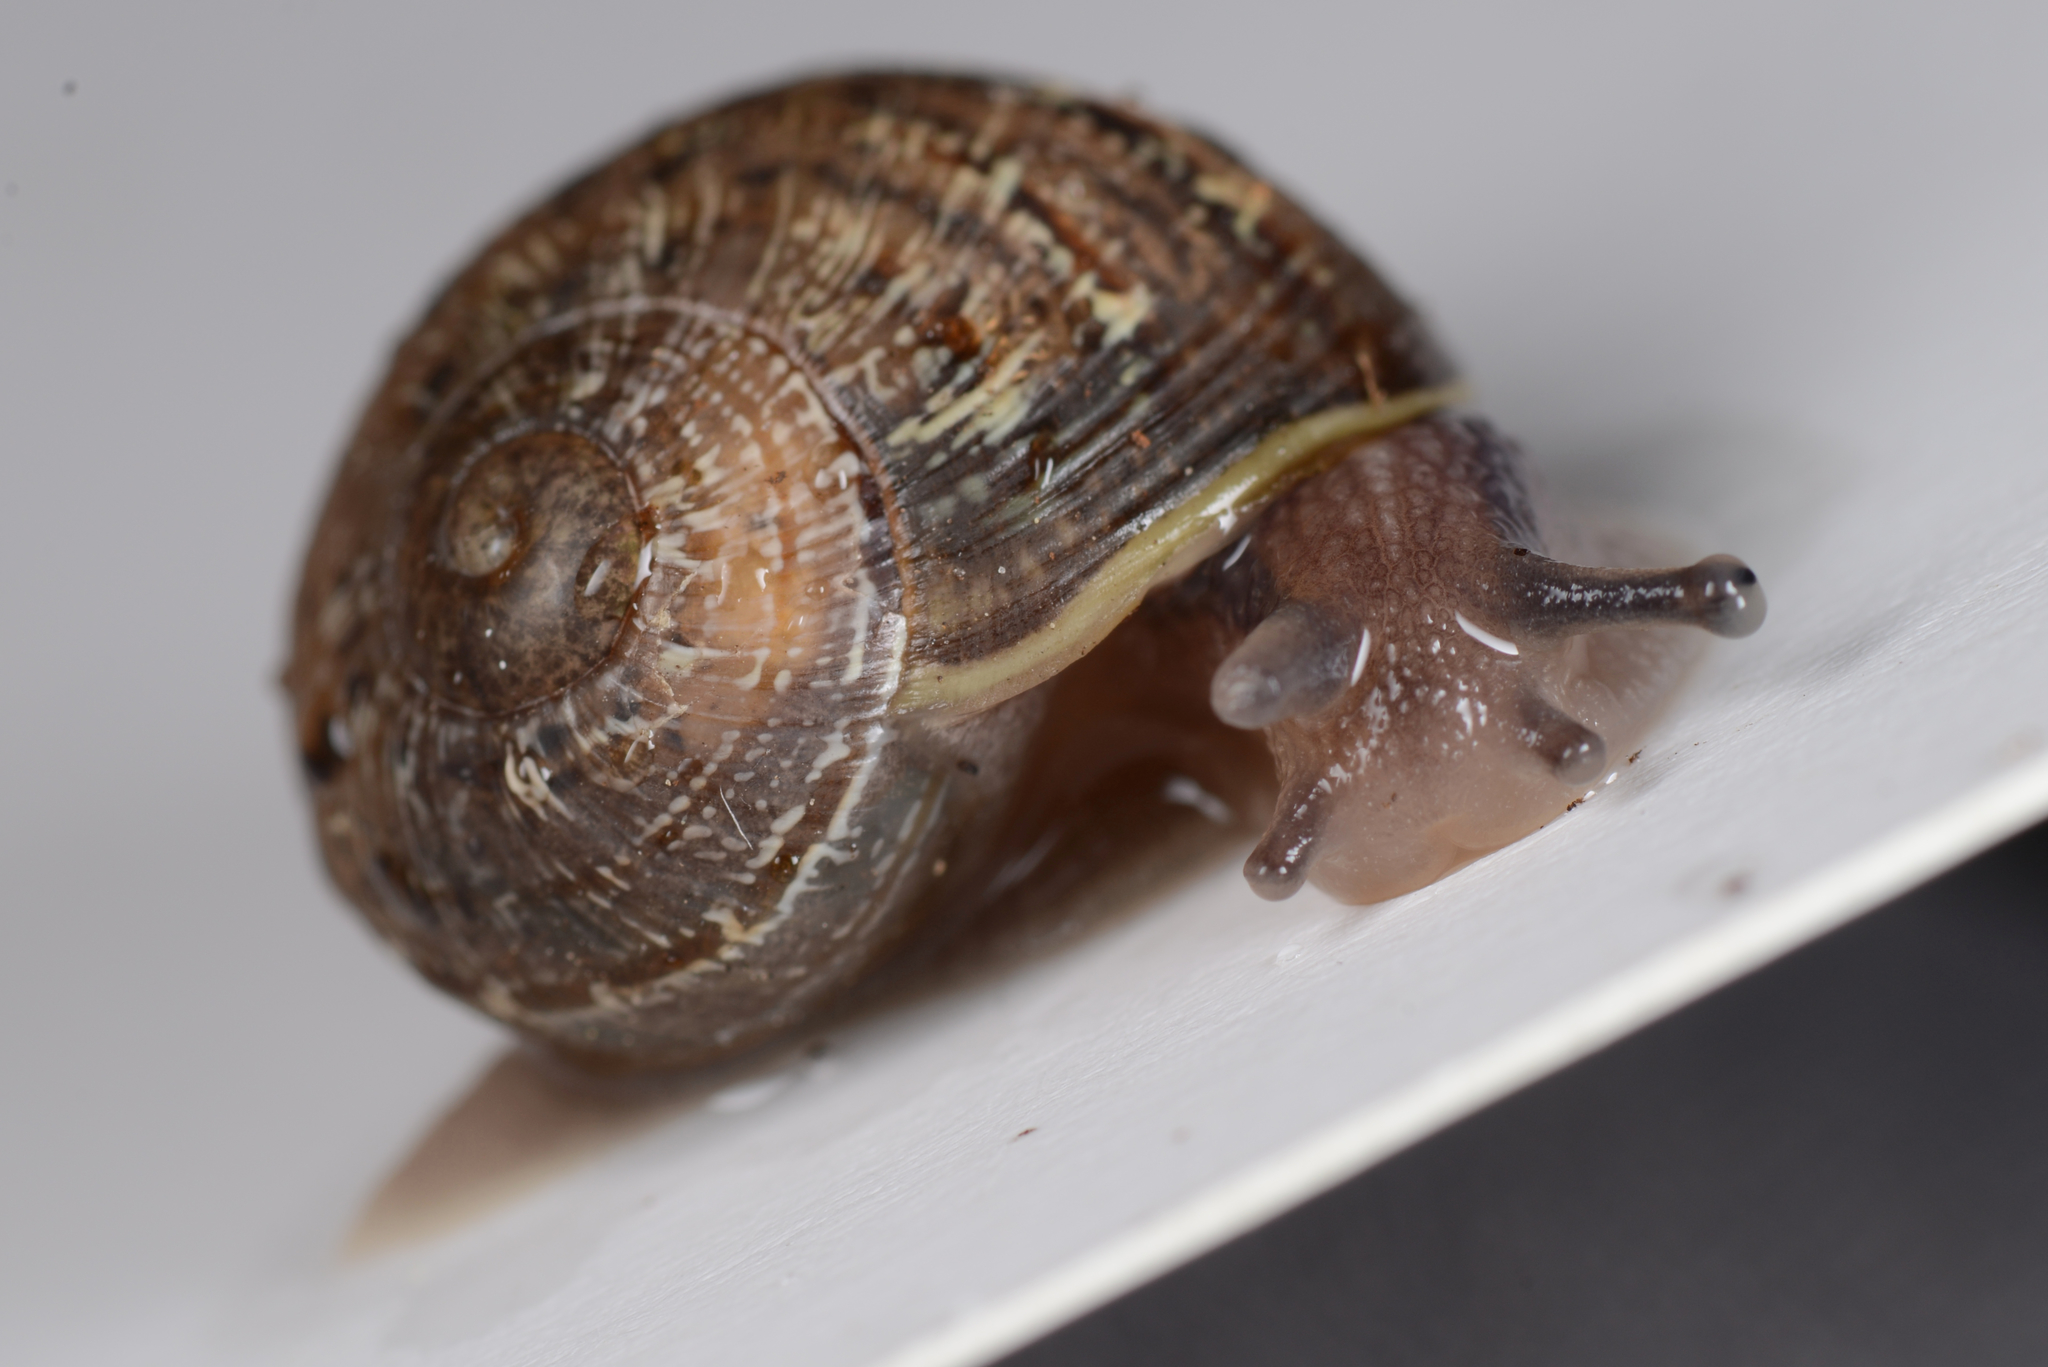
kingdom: Animalia
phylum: Mollusca
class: Gastropoda
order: Stylommatophora
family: Helicidae
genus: Cornu
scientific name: Cornu aspersum
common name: Brown garden snail
